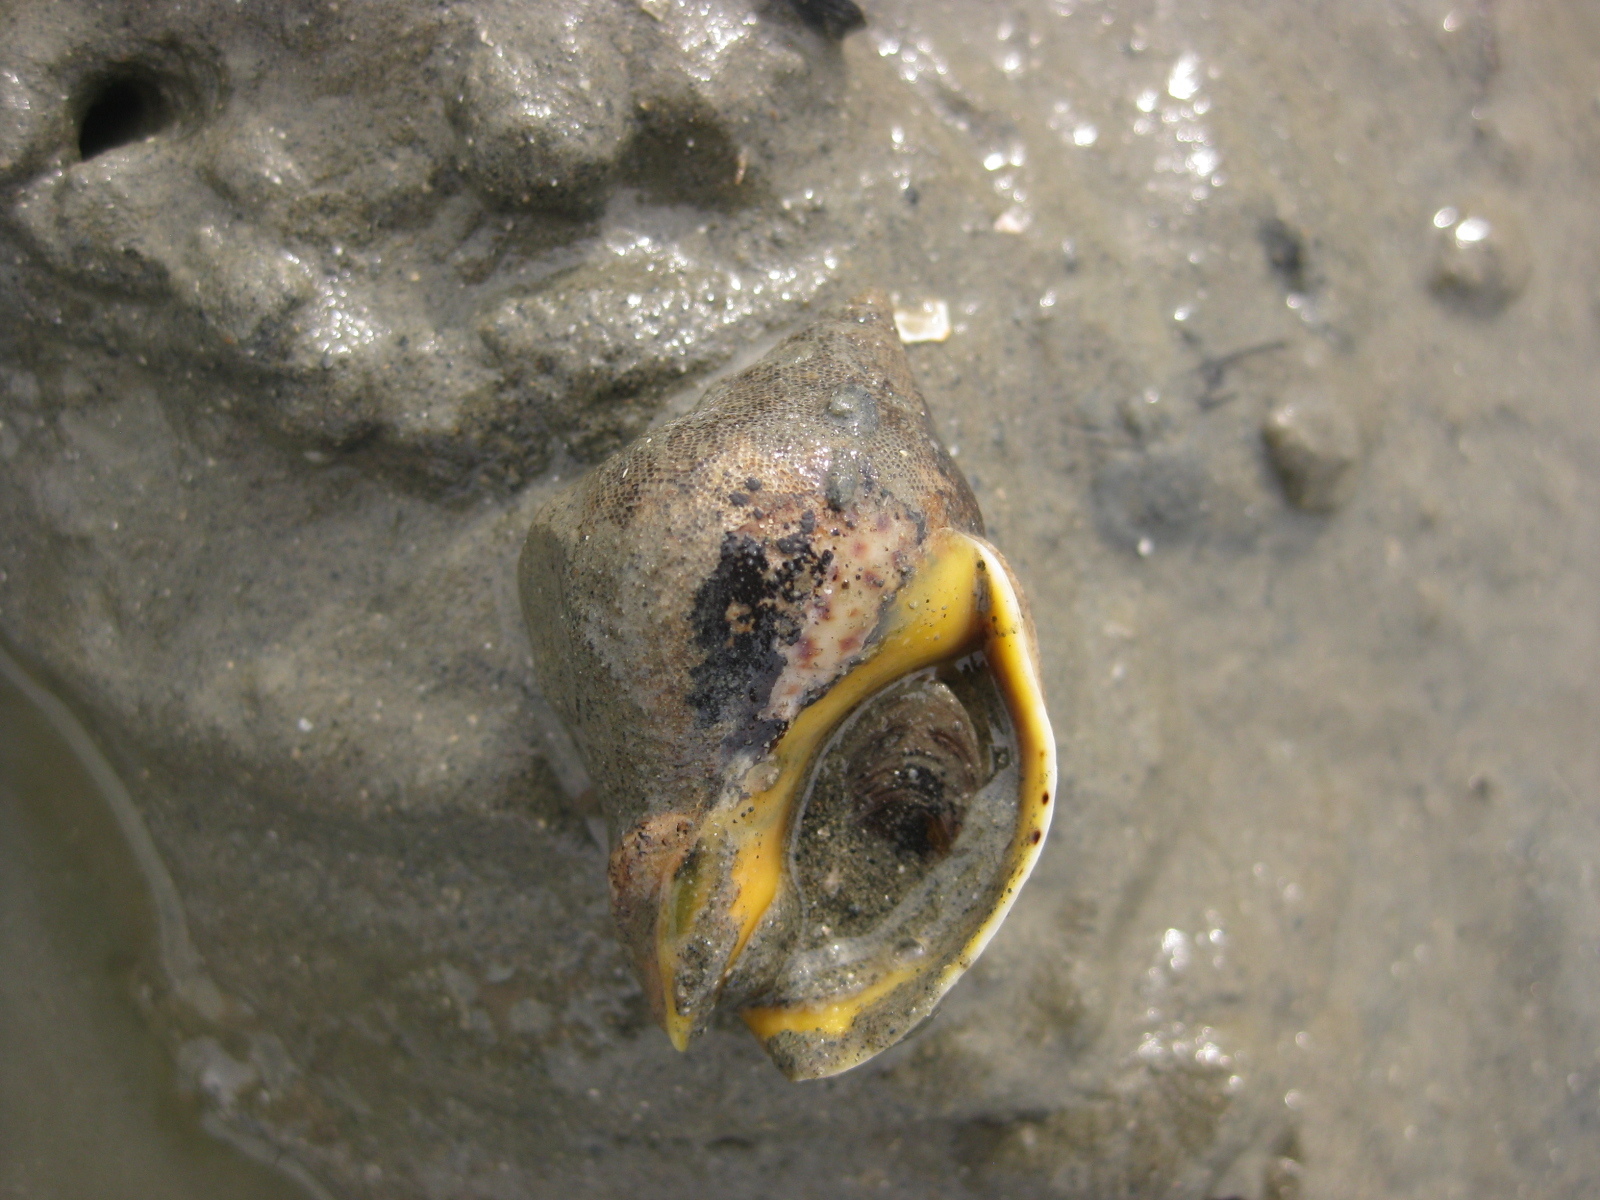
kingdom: Animalia
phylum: Mollusca
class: Gastropoda
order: Neogastropoda
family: Cominellidae
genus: Cominella
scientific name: Cominella adspersa
